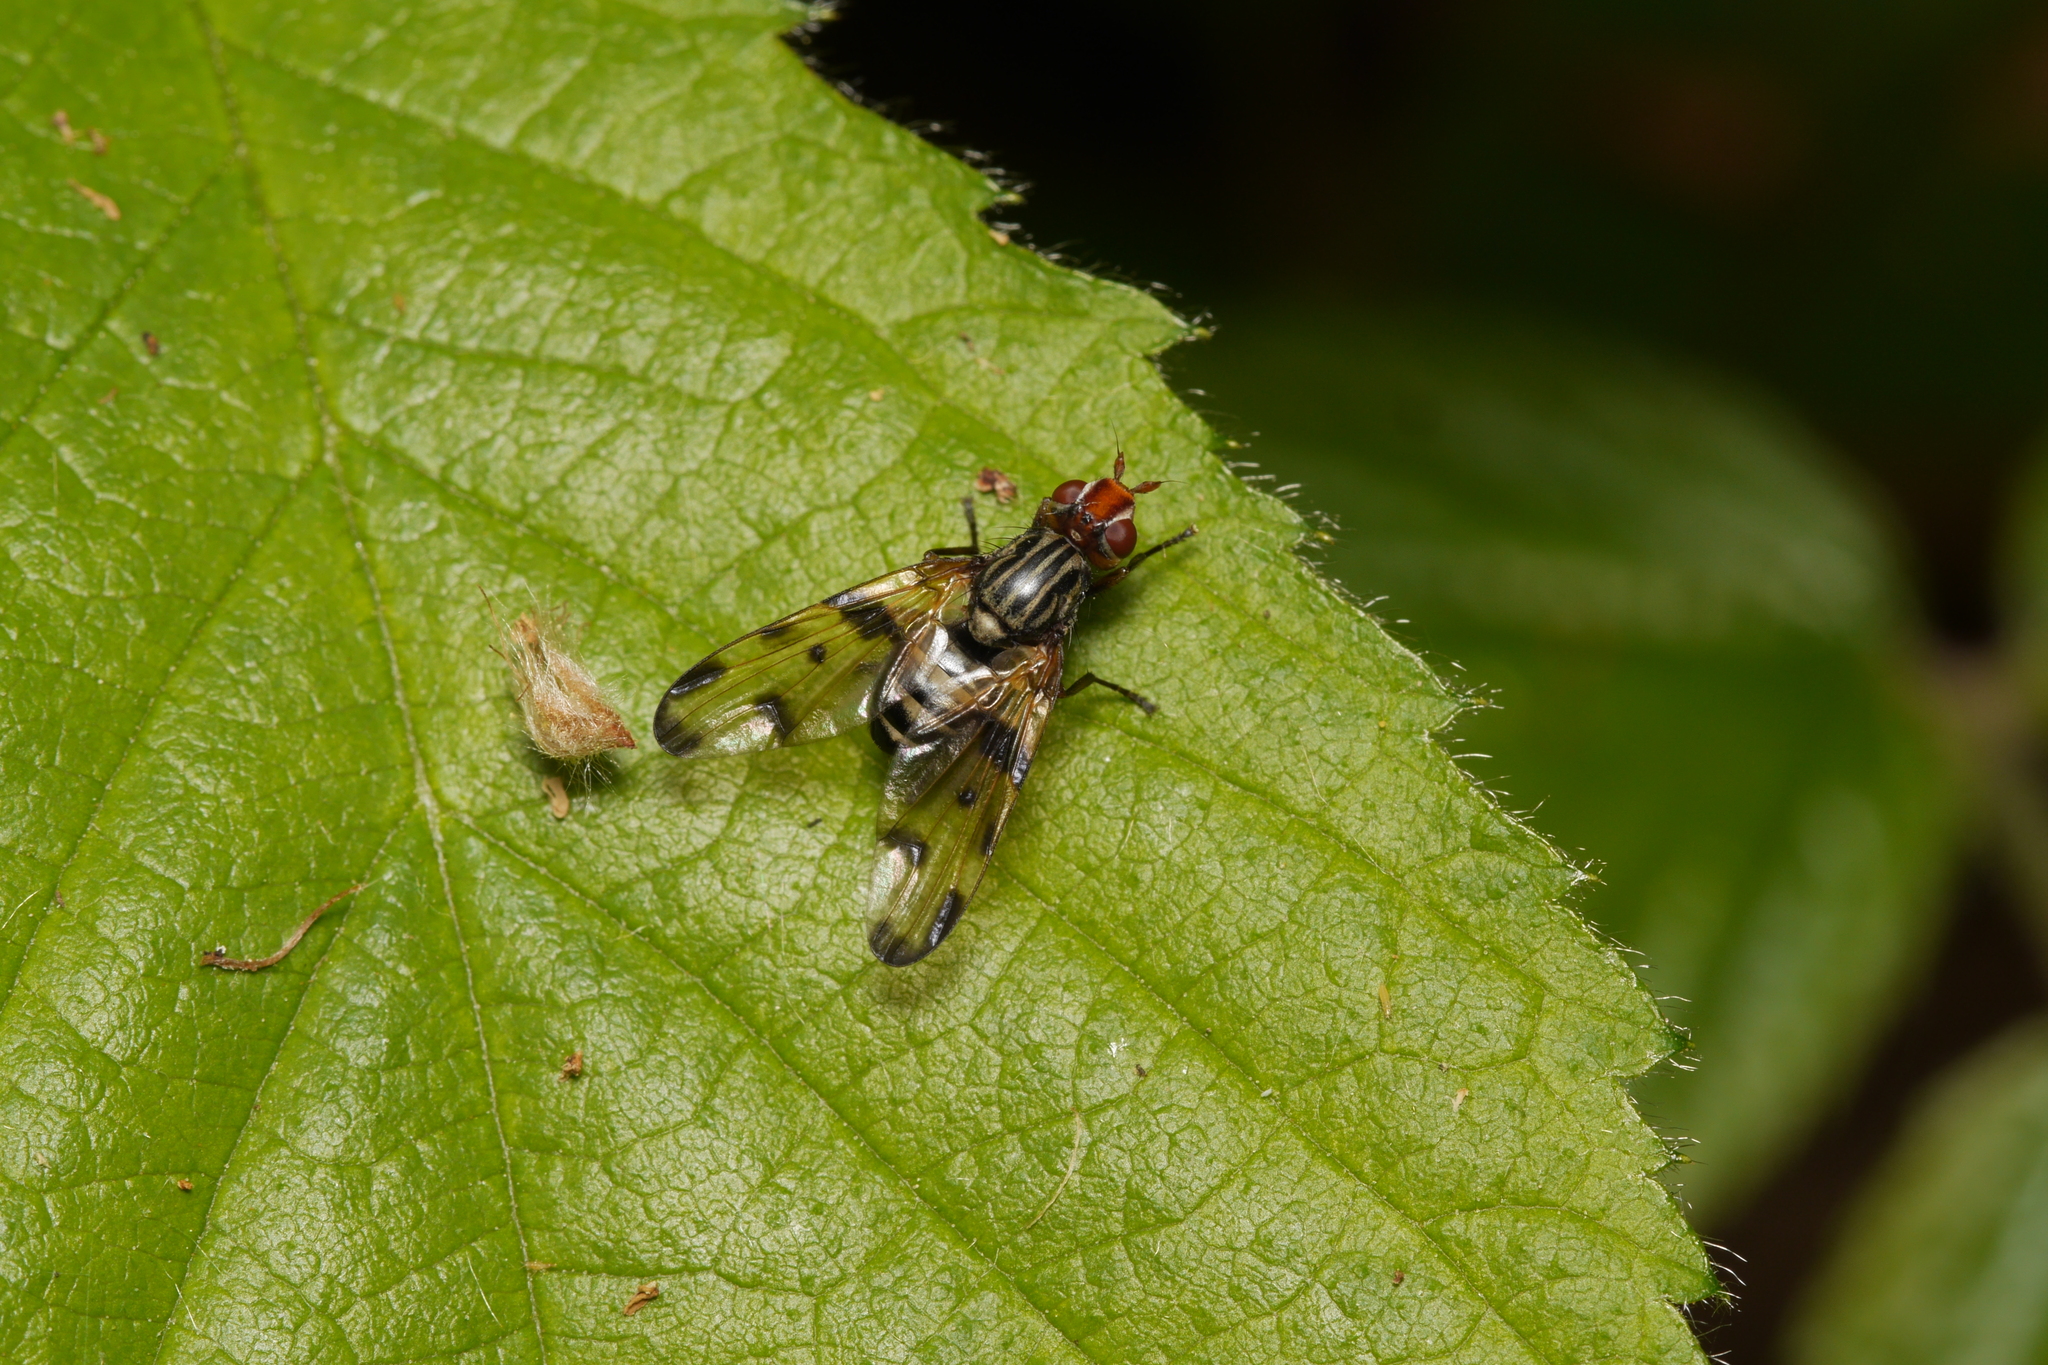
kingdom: Animalia
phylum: Arthropoda
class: Insecta
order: Diptera
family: Ulidiidae
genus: Otites
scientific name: Otites porcus
